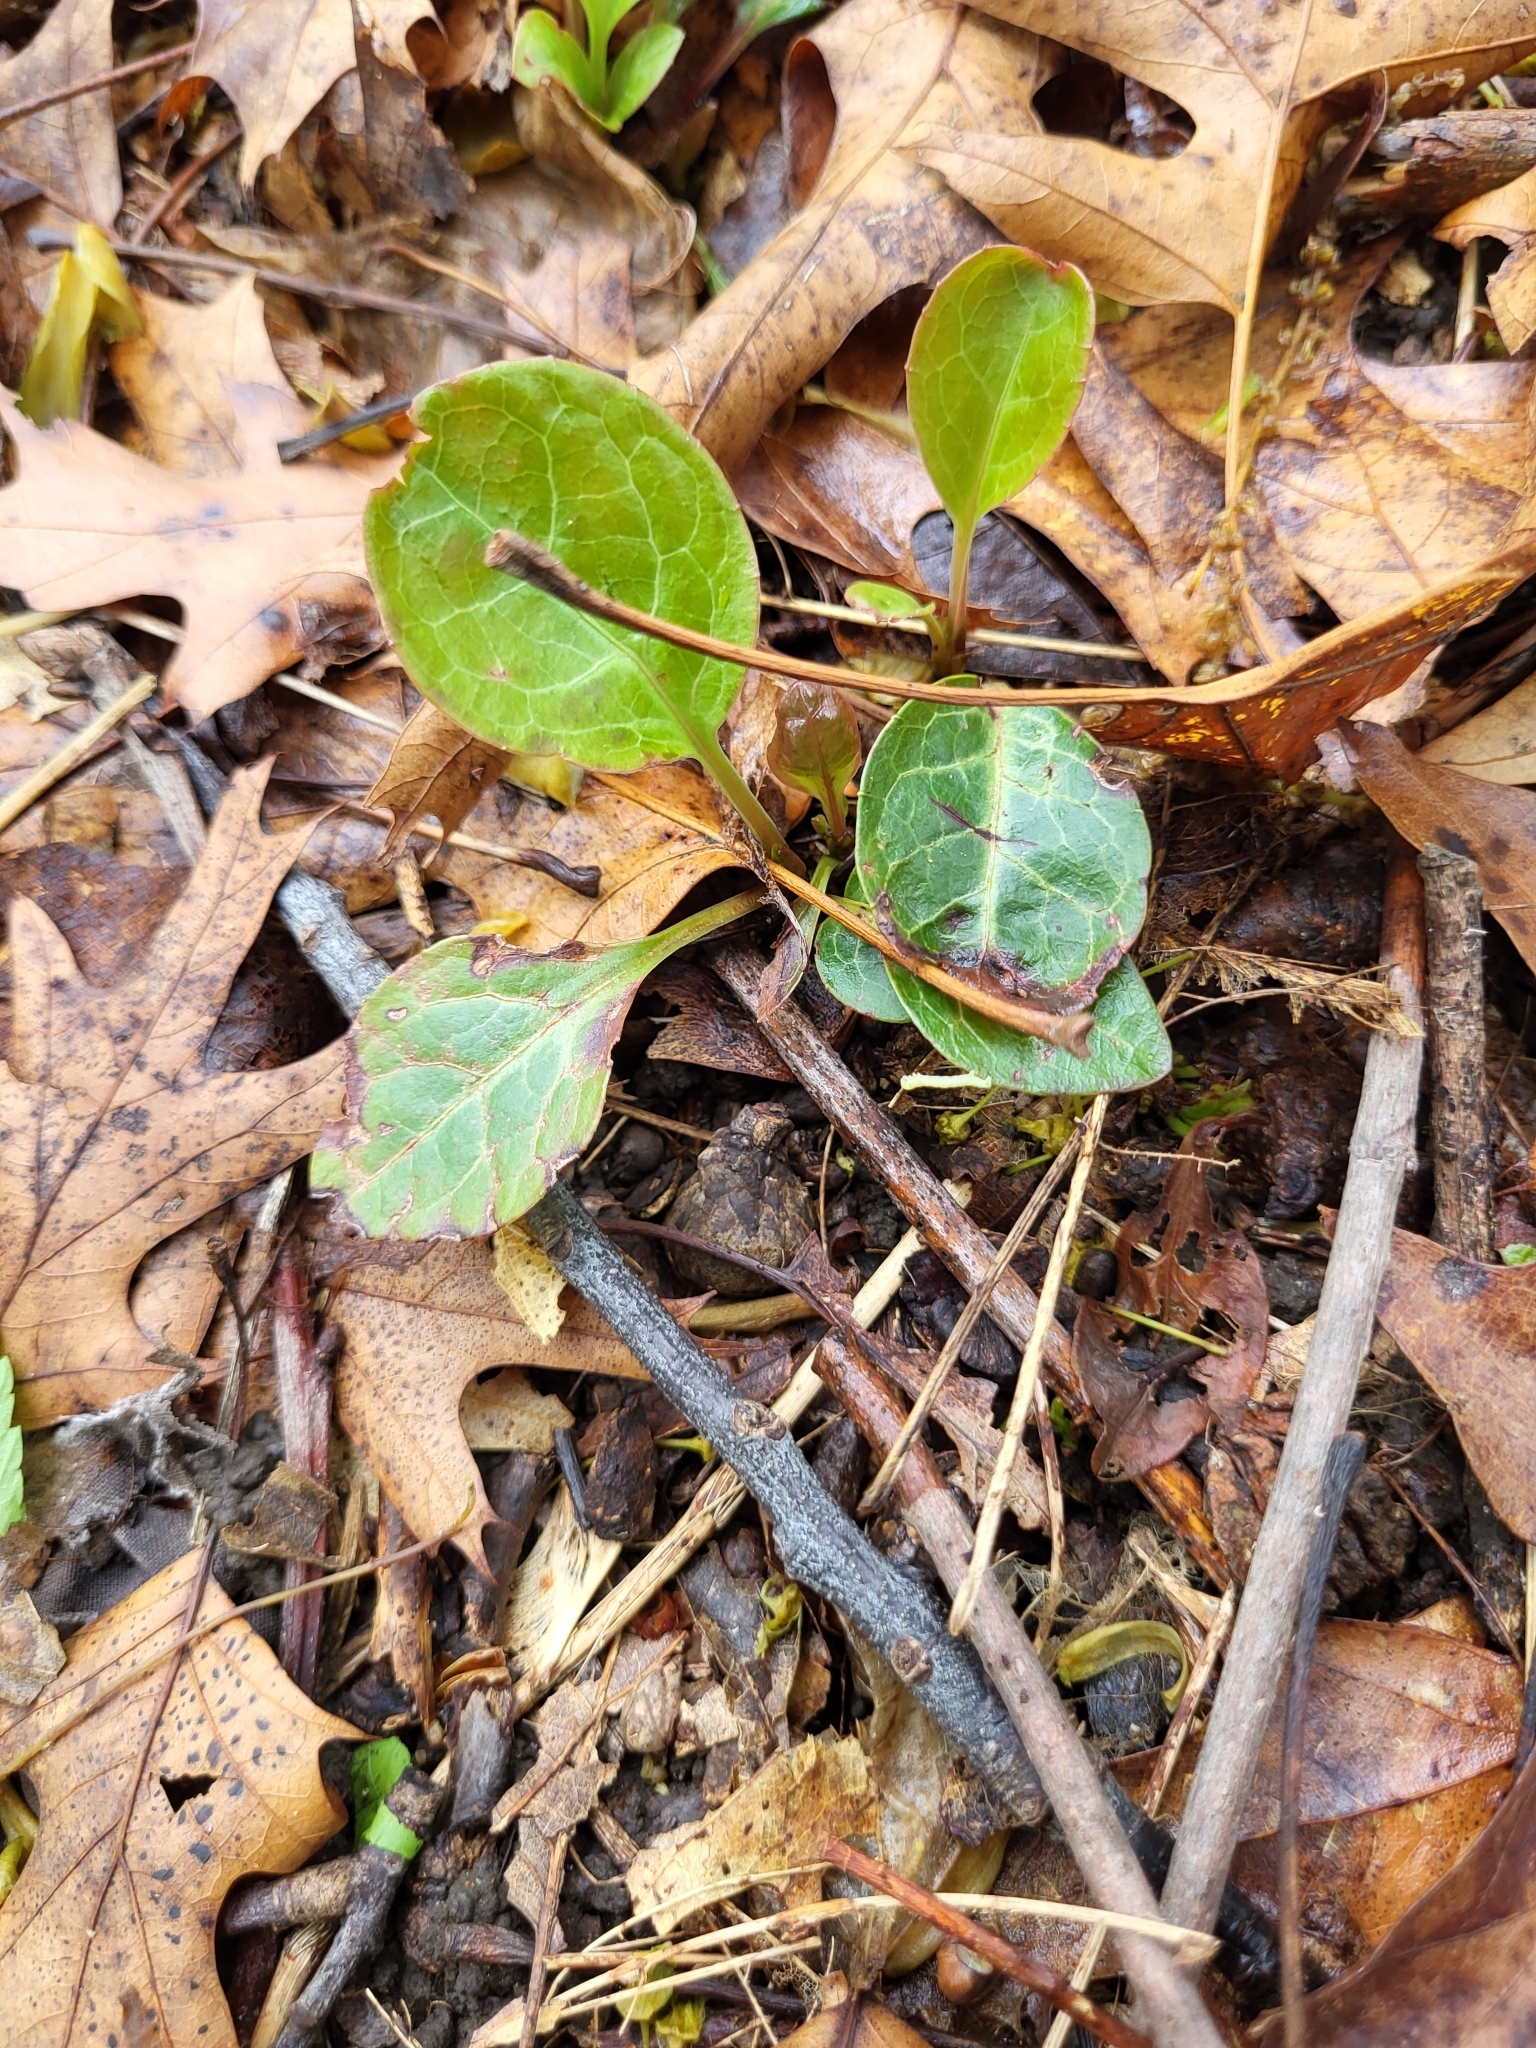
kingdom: Plantae
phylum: Tracheophyta
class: Magnoliopsida
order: Ericales
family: Ericaceae
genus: Pyrola
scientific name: Pyrola americana
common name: American wintergreen
